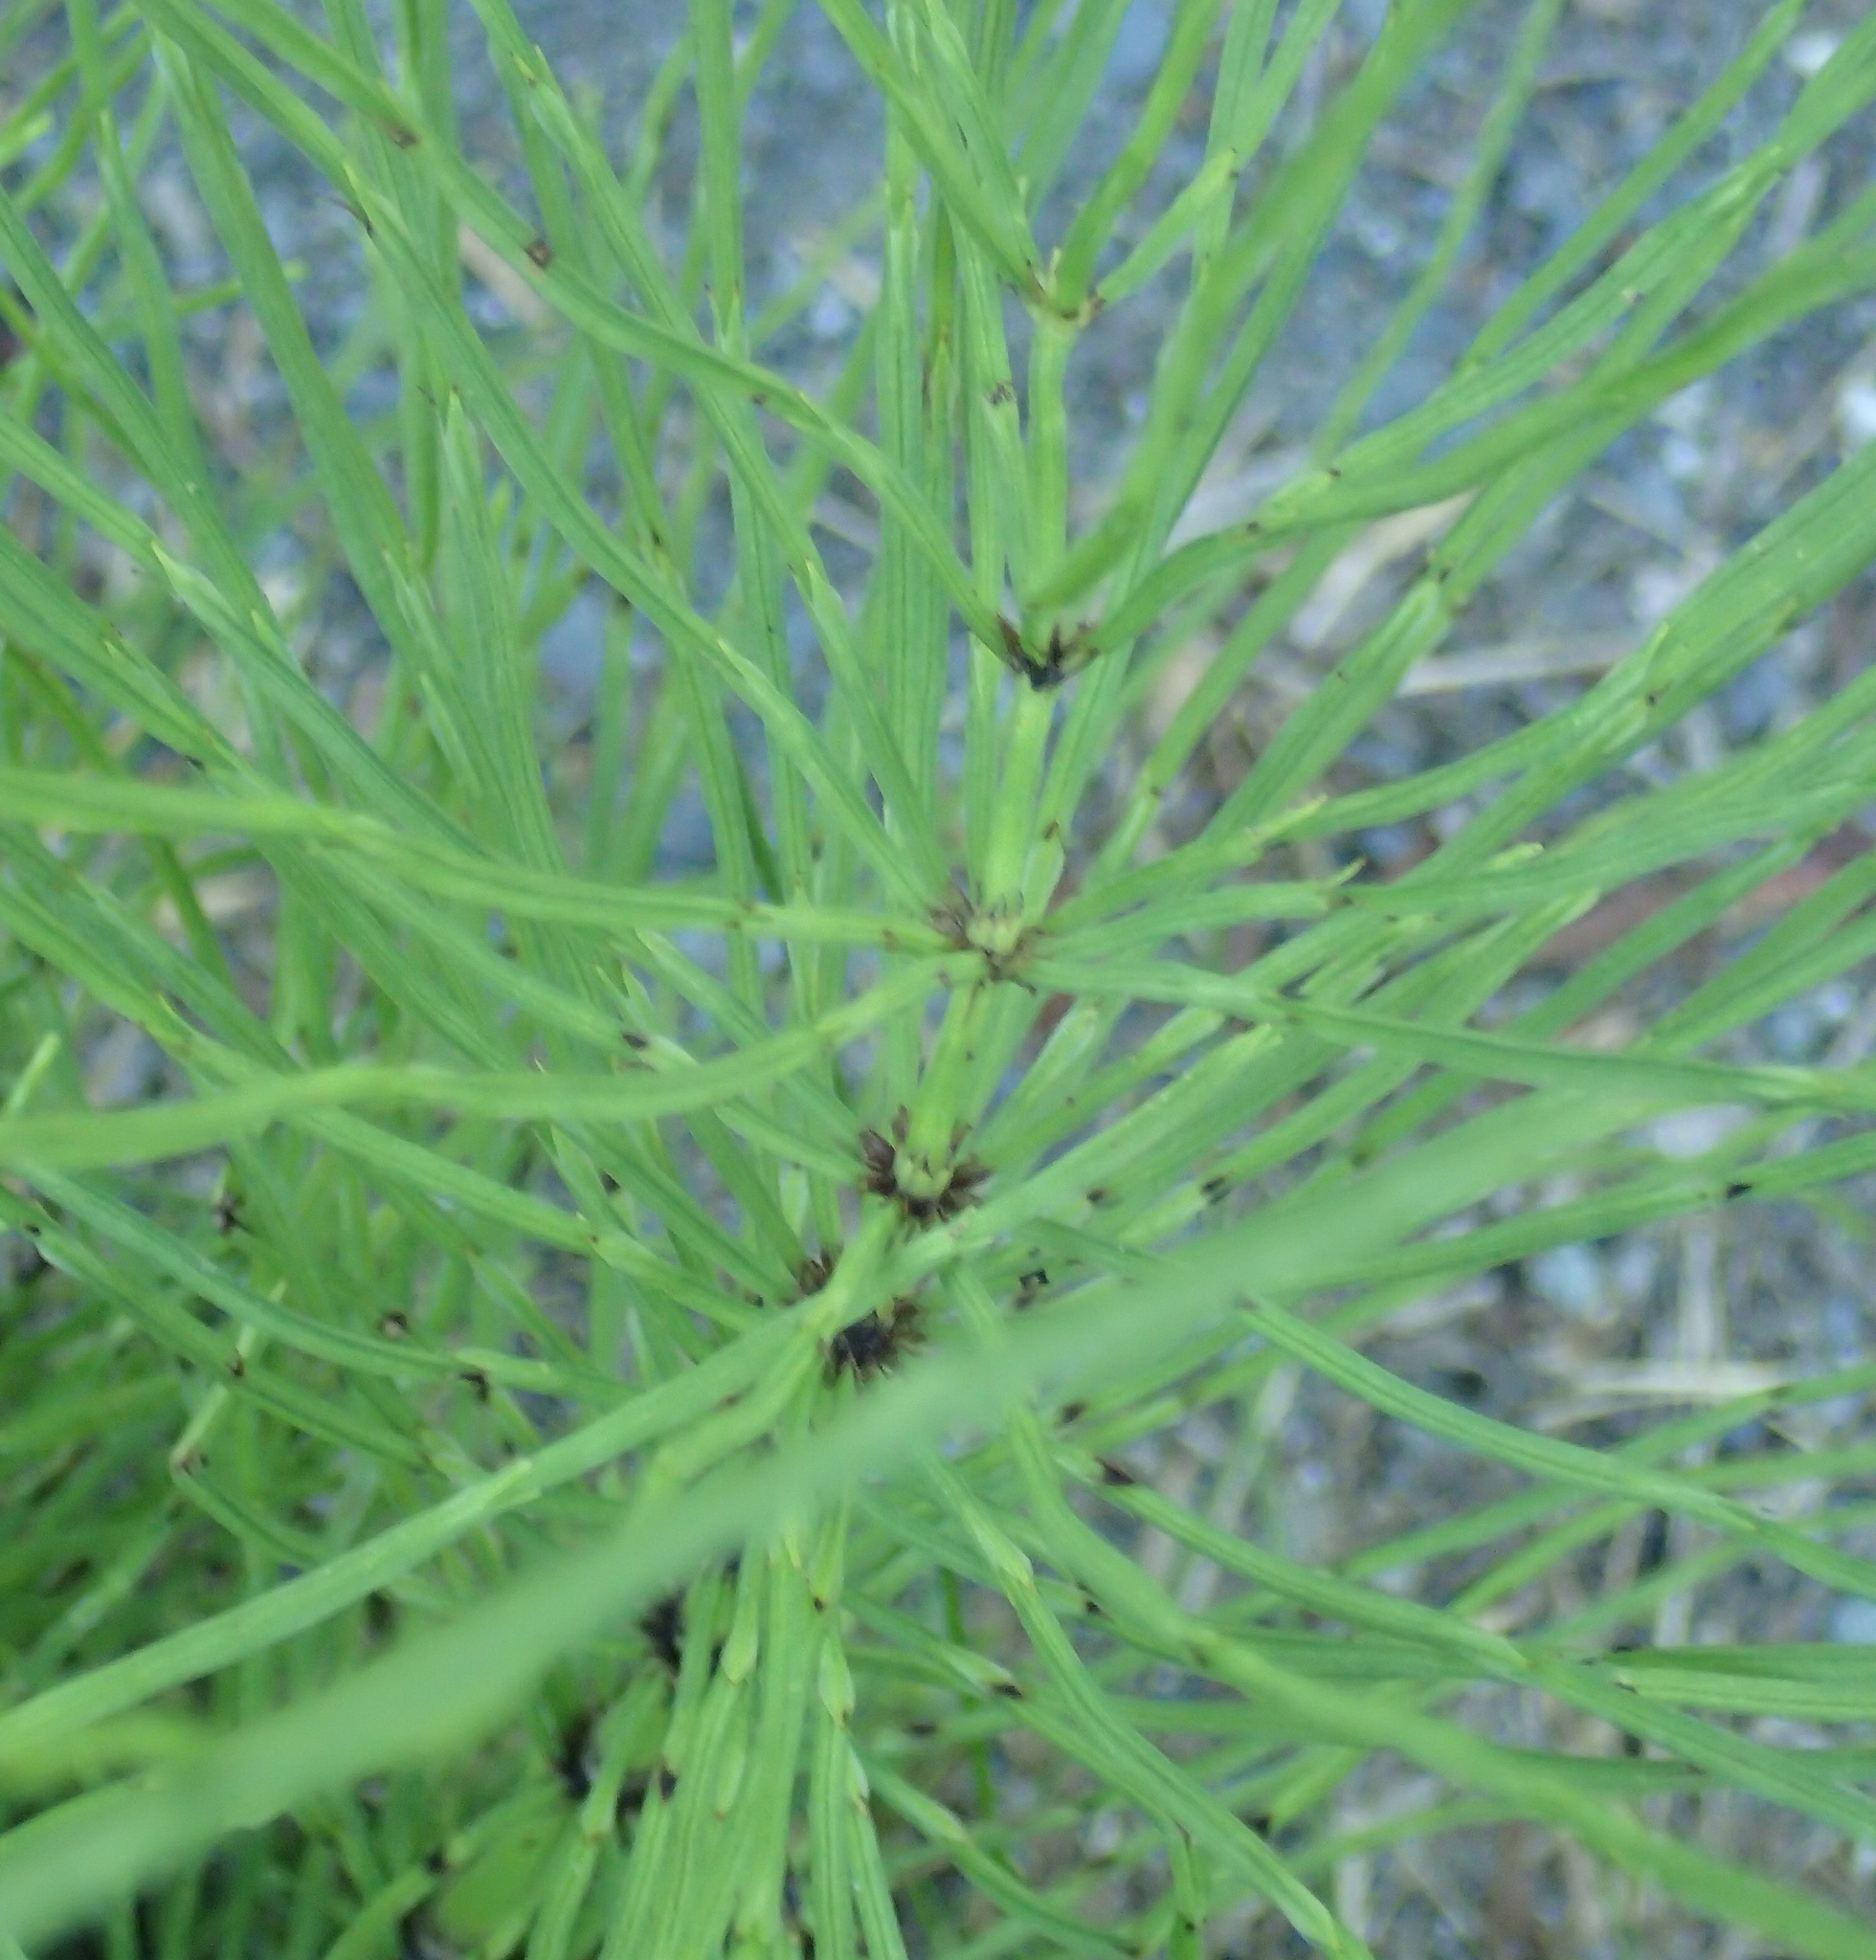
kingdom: Plantae
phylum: Tracheophyta
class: Polypodiopsida
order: Equisetales
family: Equisetaceae
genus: Equisetum
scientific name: Equisetum arvense
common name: Field horsetail
